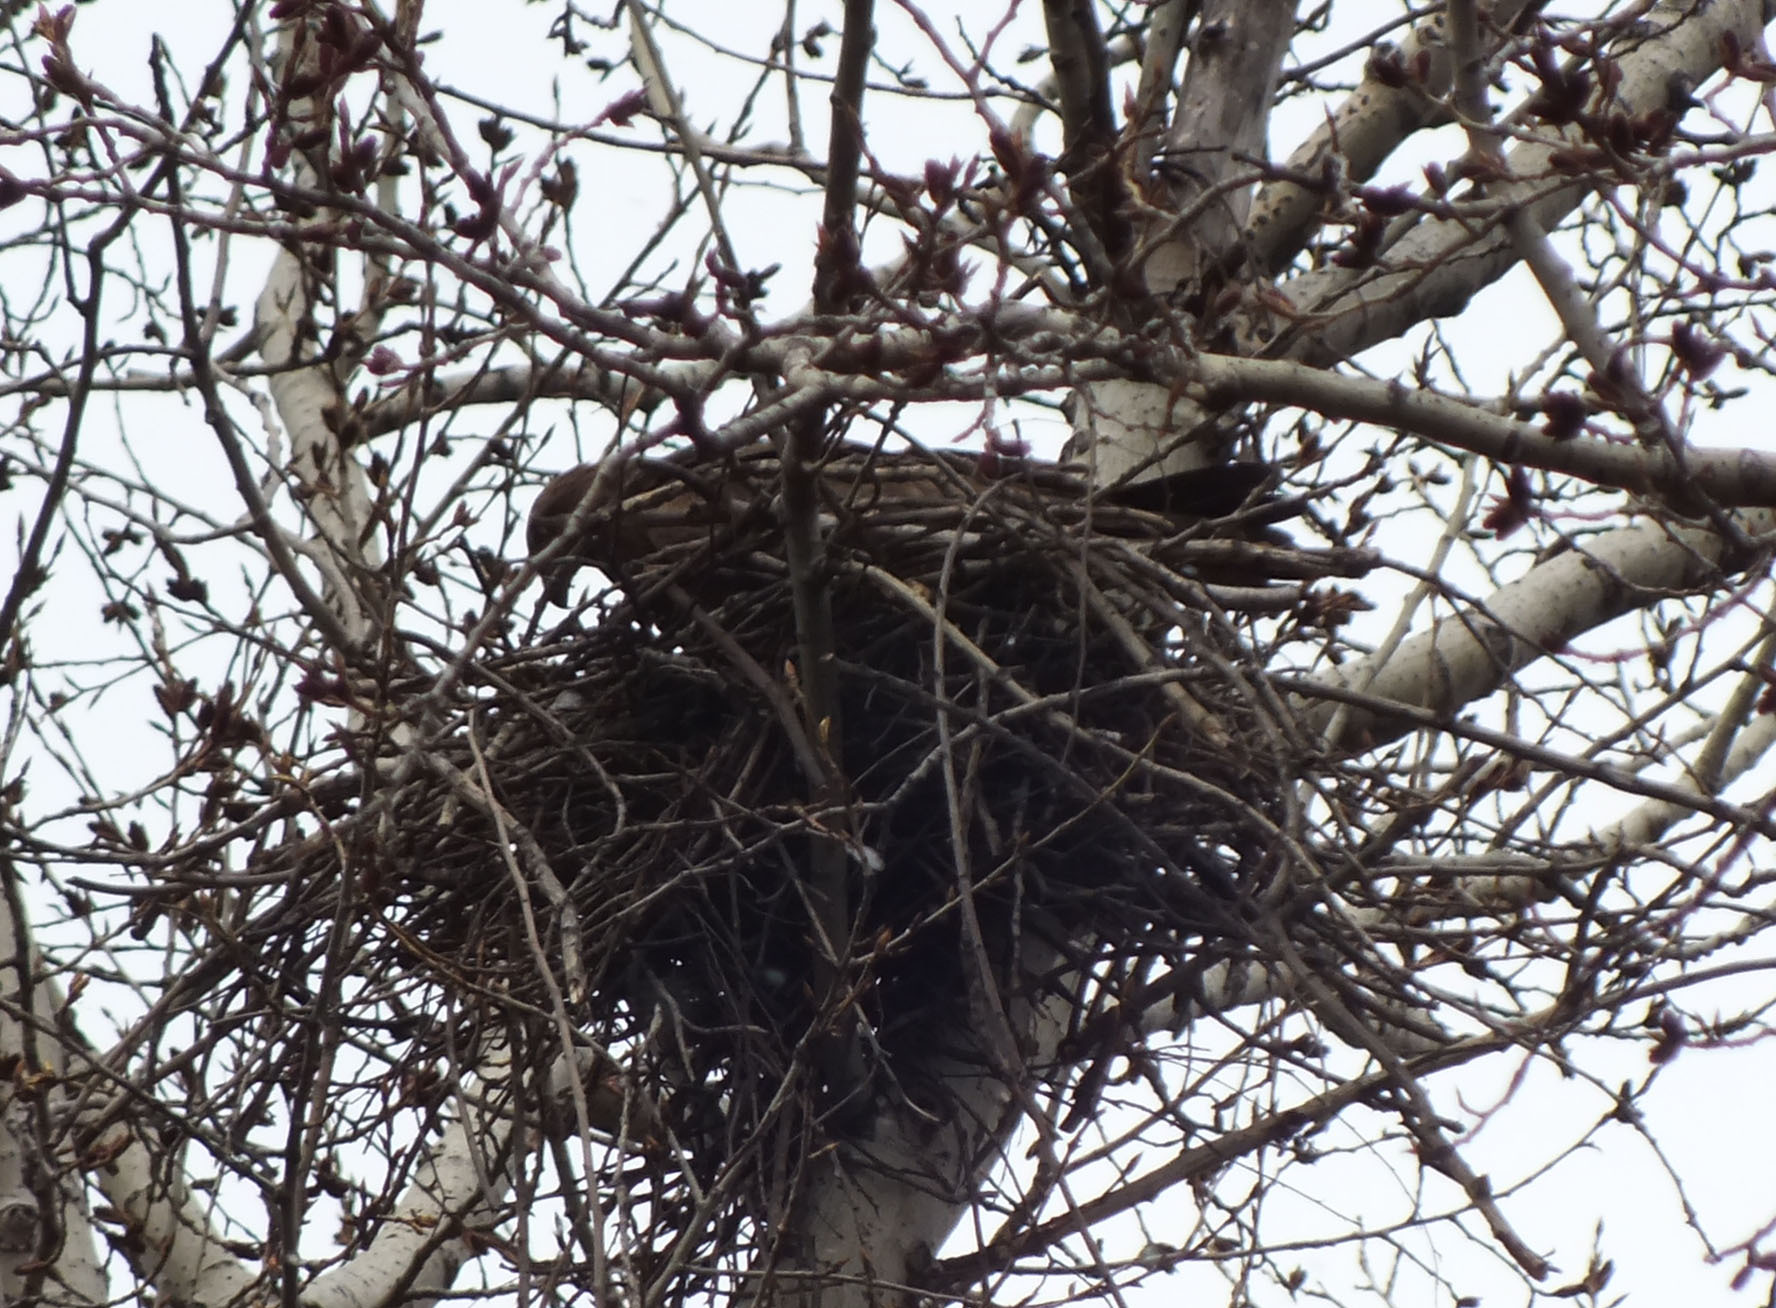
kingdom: Animalia
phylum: Chordata
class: Aves
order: Accipitriformes
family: Accipitridae
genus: Milvus
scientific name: Milvus migrans
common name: Black kite
